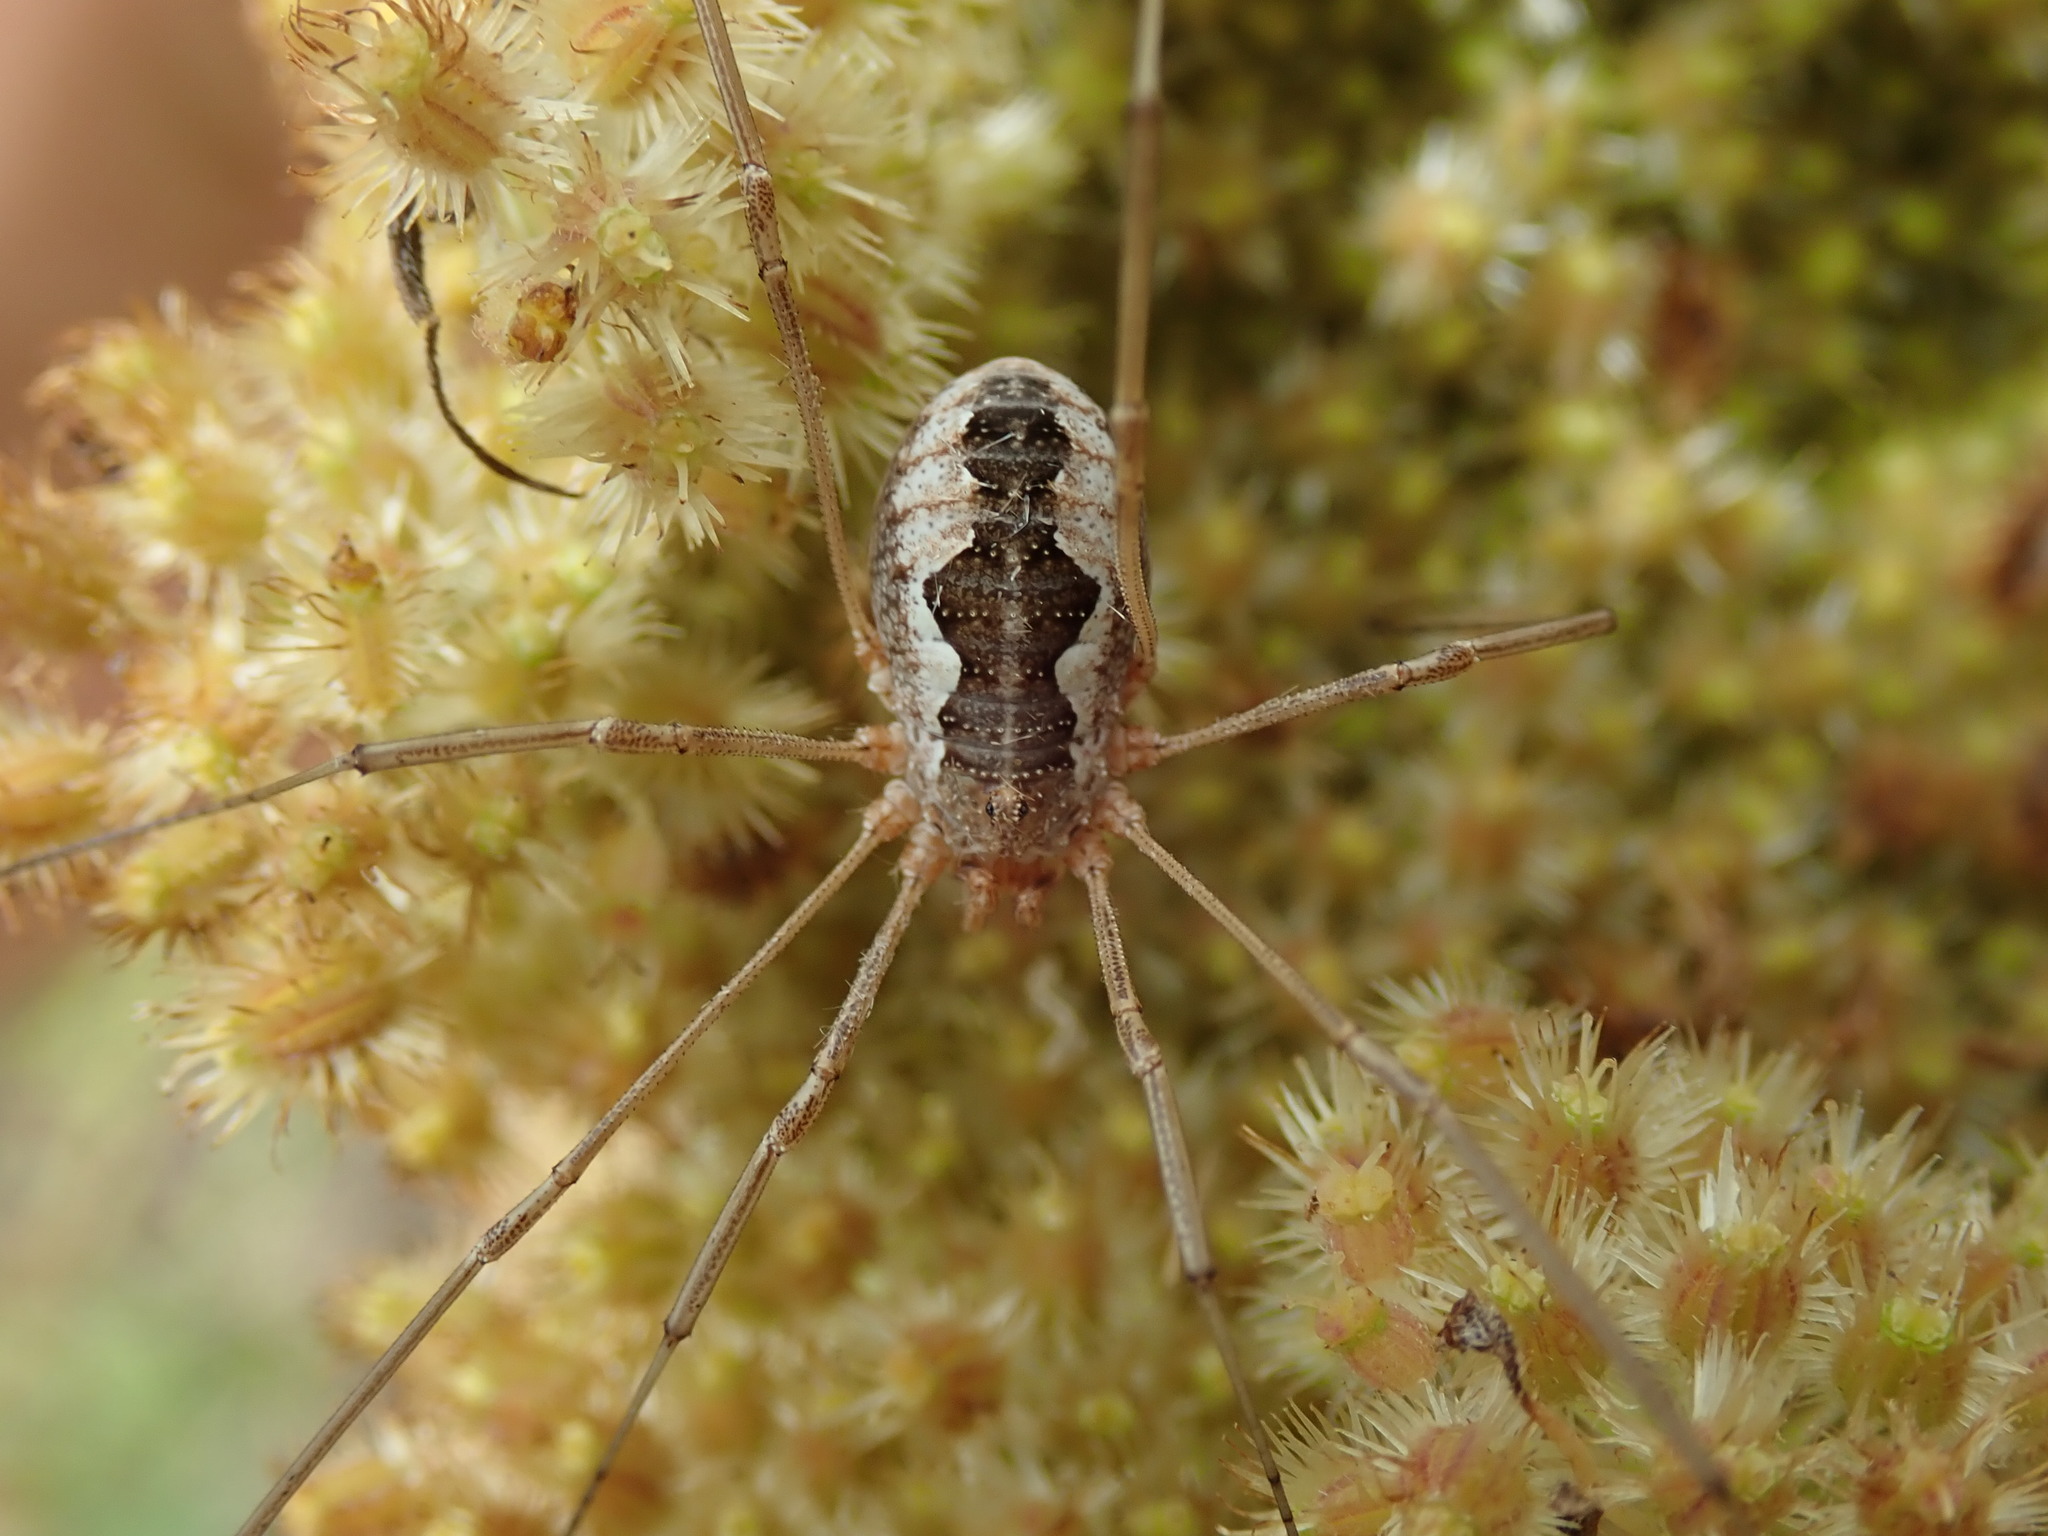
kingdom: Animalia
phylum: Arthropoda
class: Arachnida
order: Opiliones
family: Phalangiidae
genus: Phalangium
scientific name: Phalangium opilio
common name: Daddy longleg
